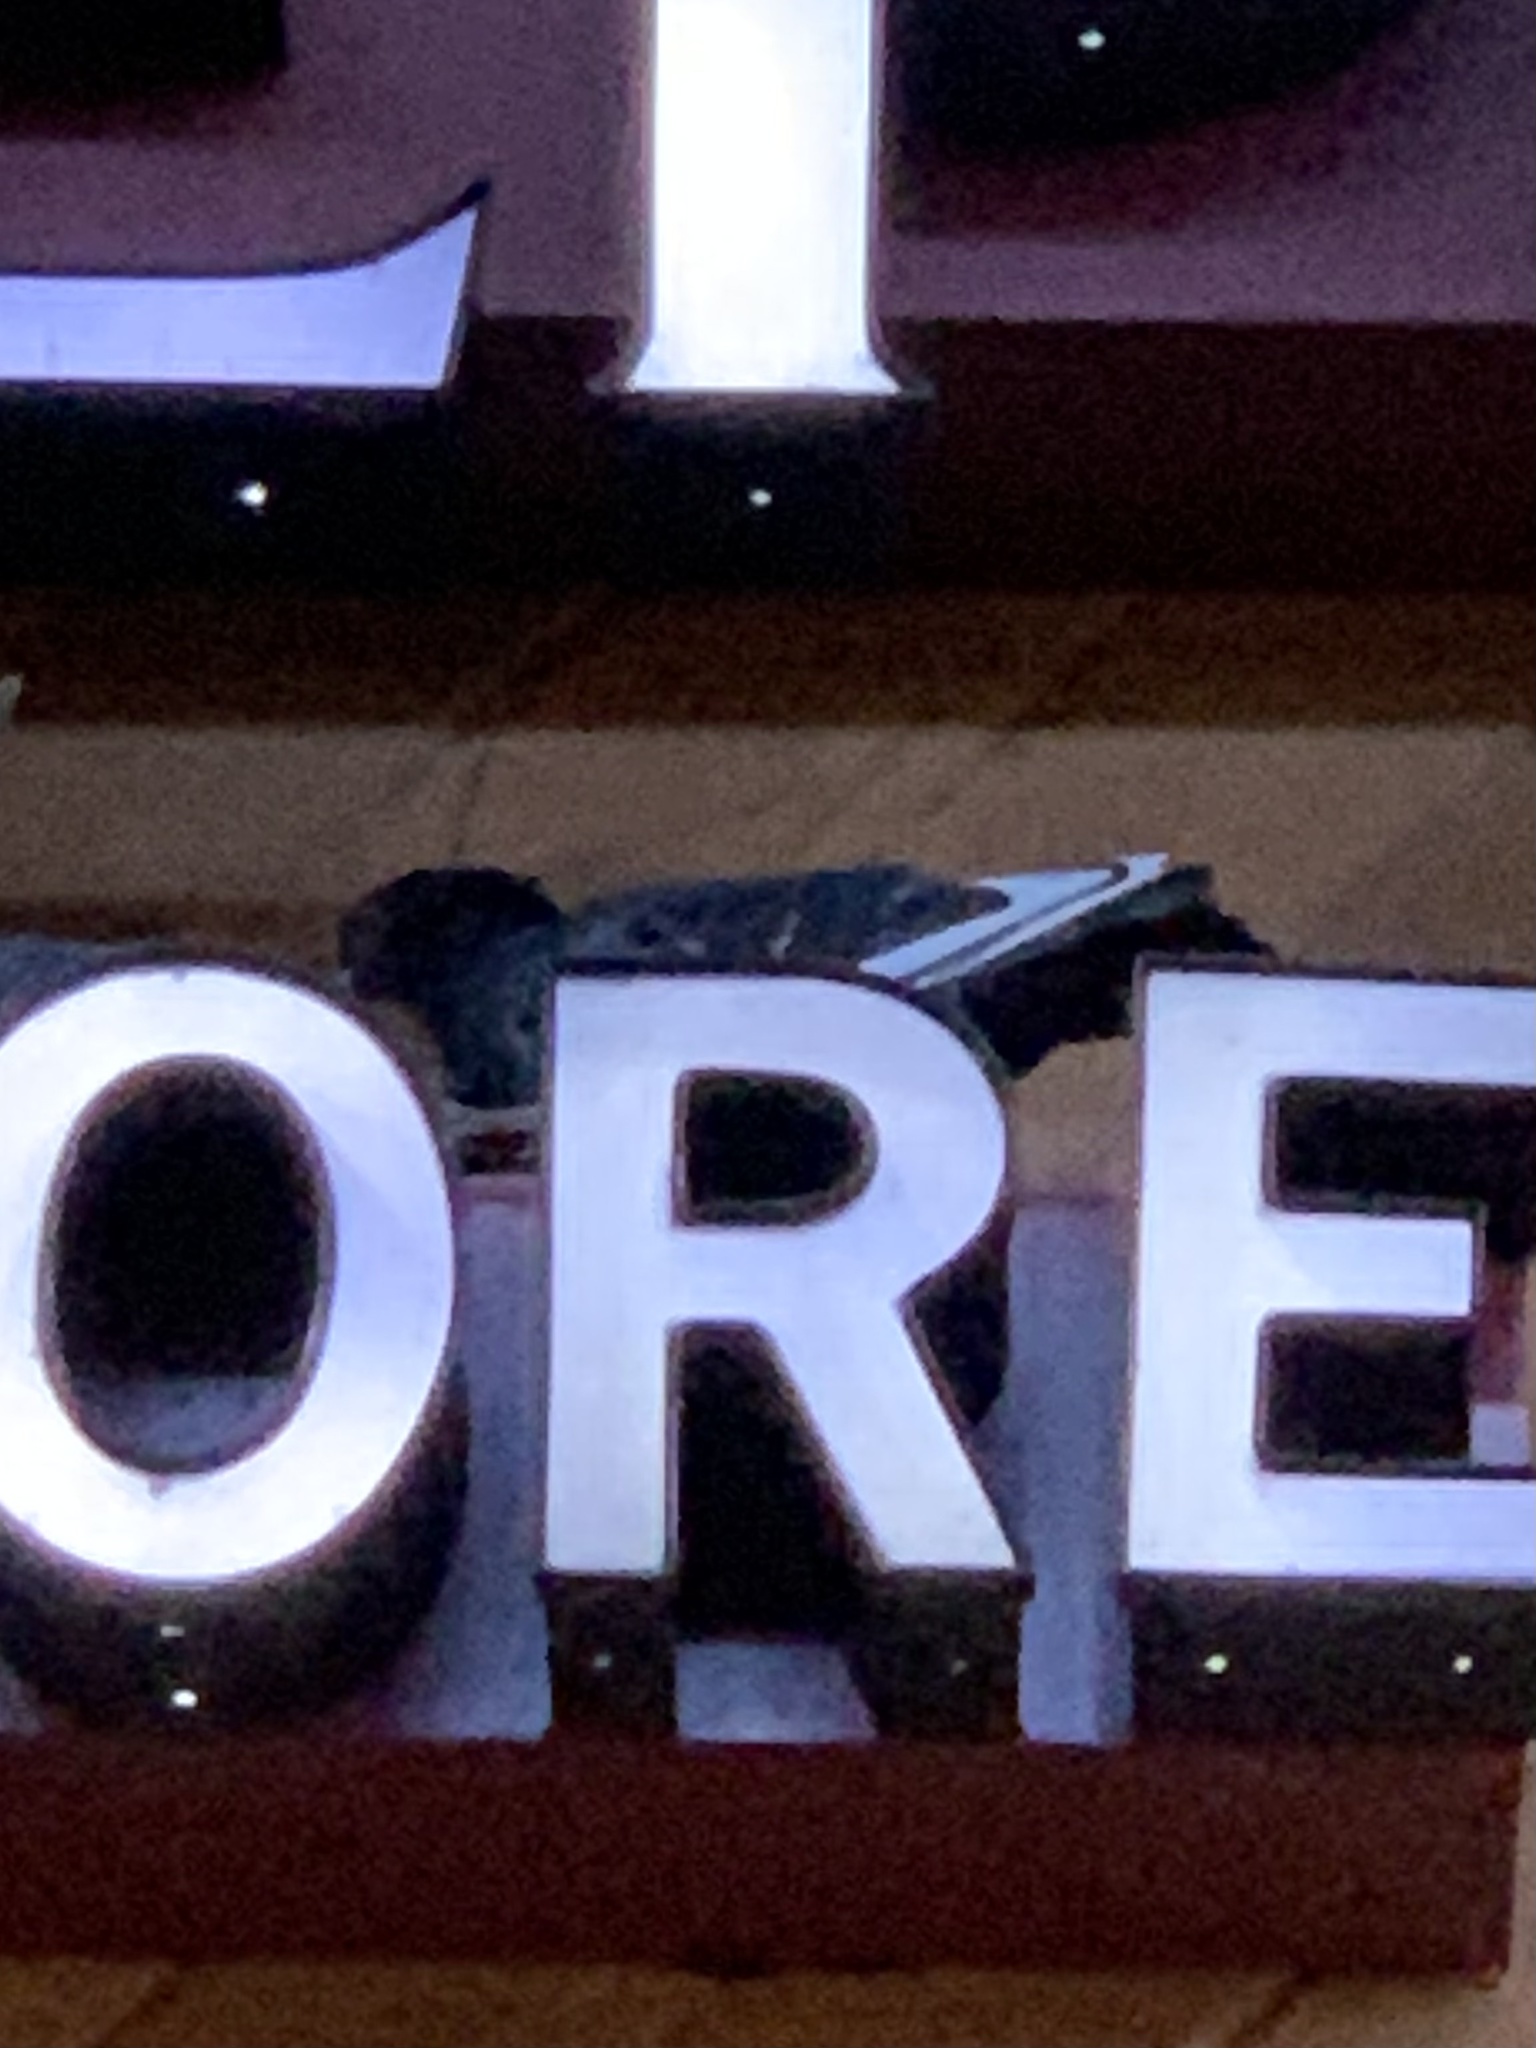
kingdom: Animalia
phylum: Chordata
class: Aves
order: Columbiformes
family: Columbidae
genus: Columba
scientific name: Columba livia
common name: Rock pigeon
